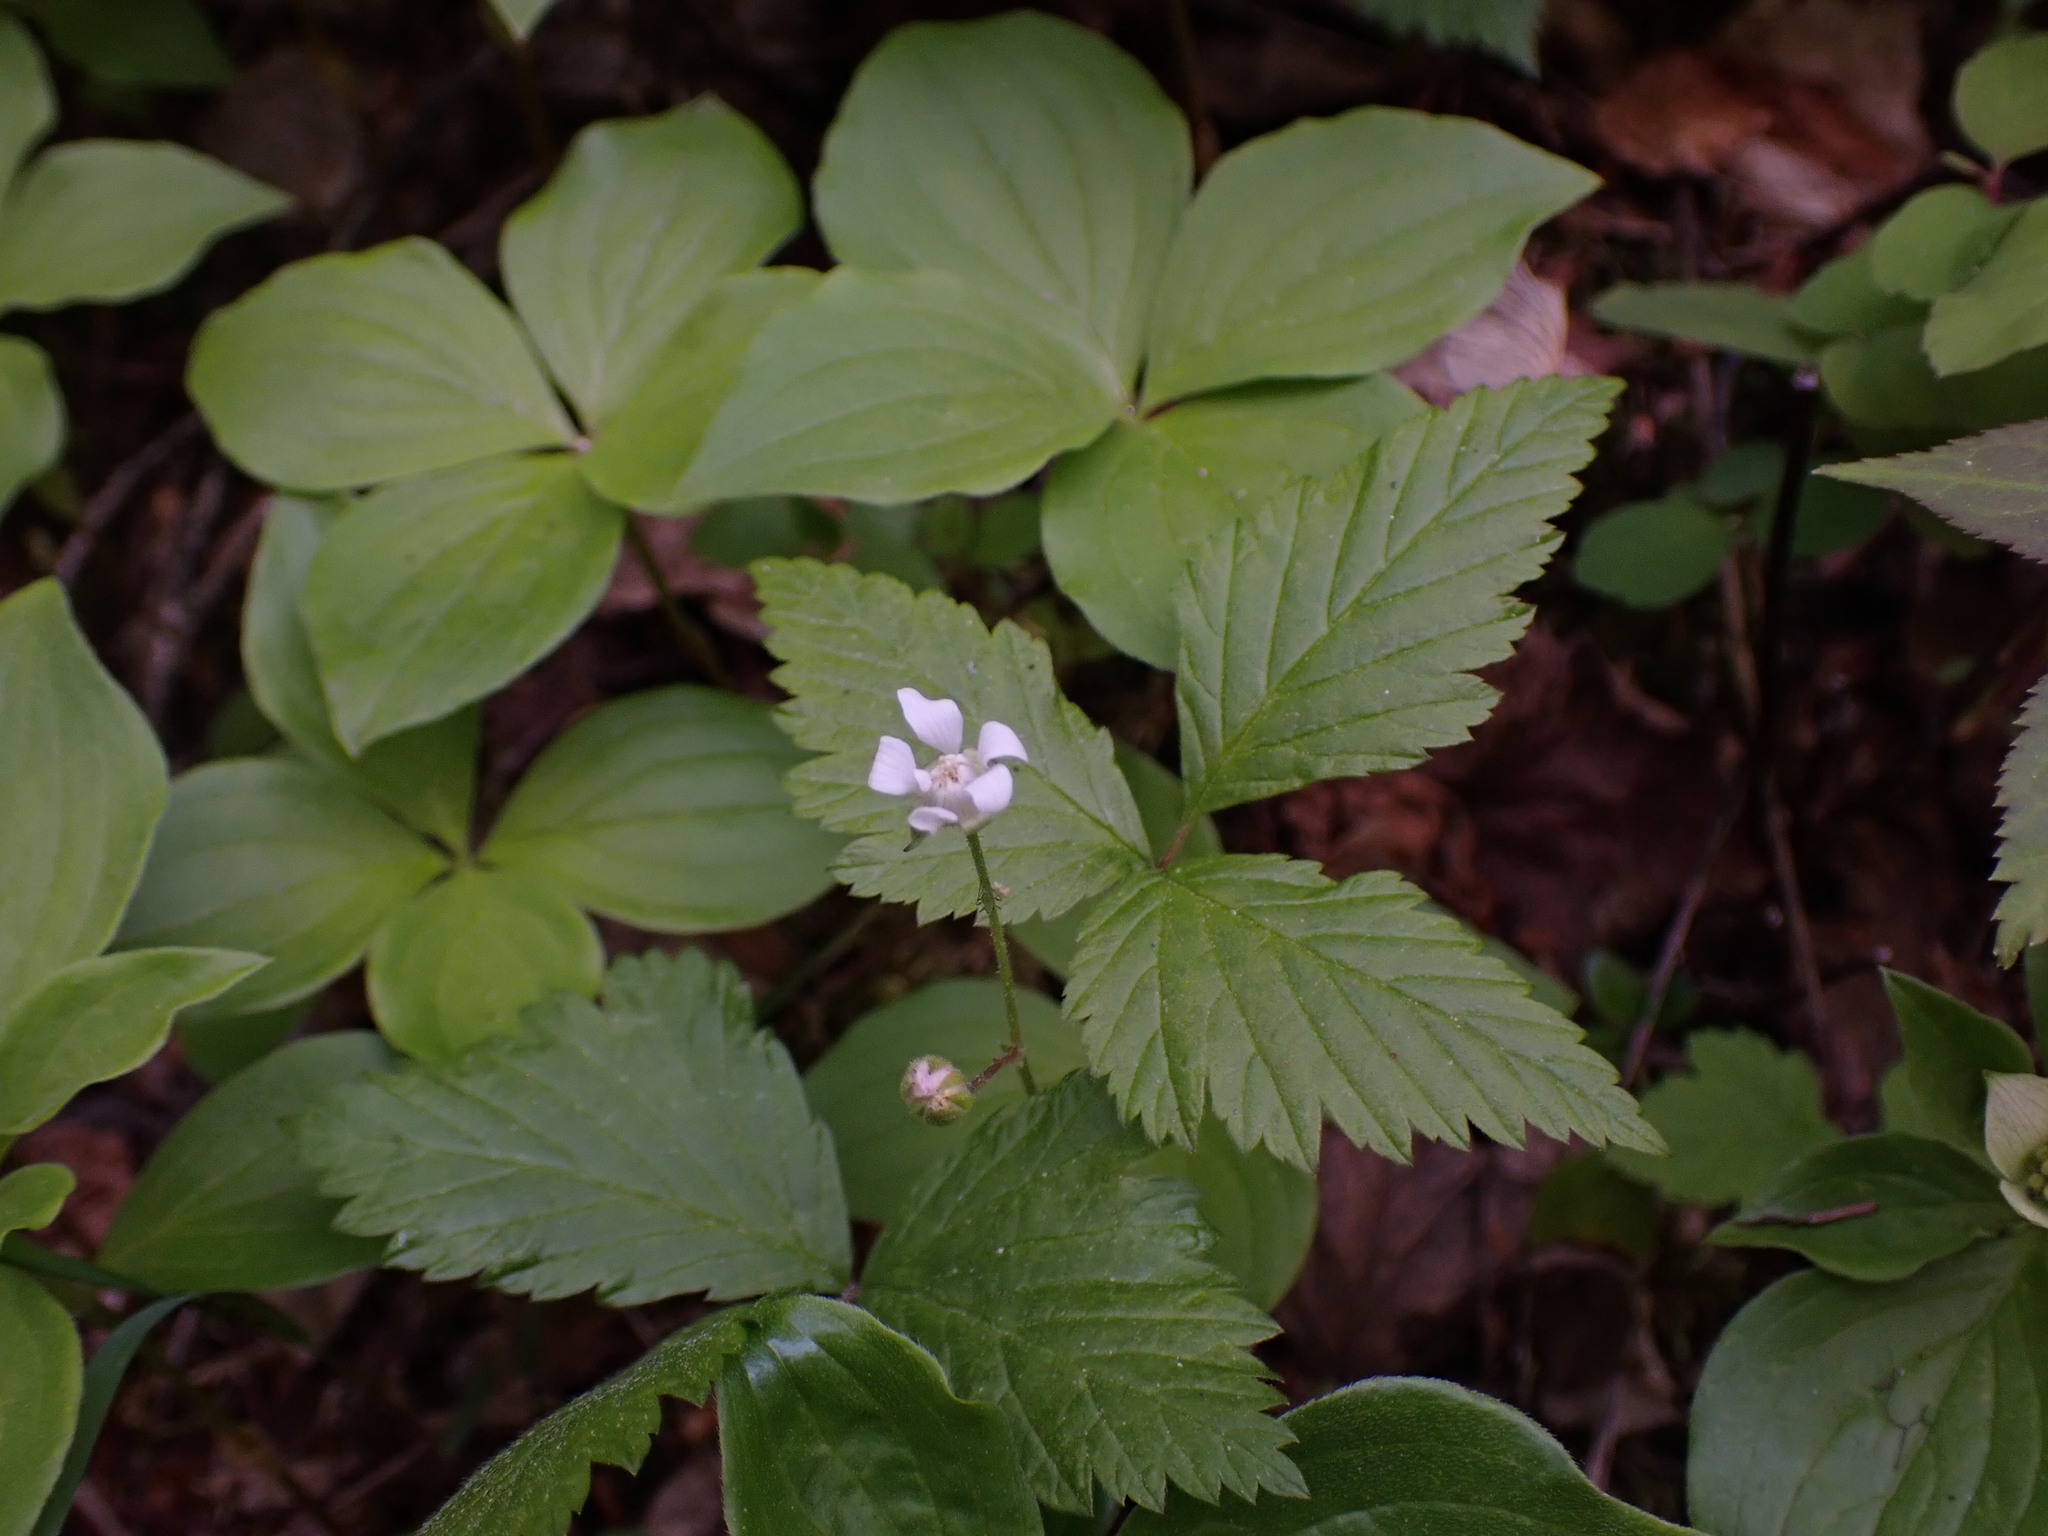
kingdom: Plantae
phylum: Tracheophyta
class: Magnoliopsida
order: Rosales
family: Rosaceae
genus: Rubus
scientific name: Rubus pubescens
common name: Dwarf raspberry
